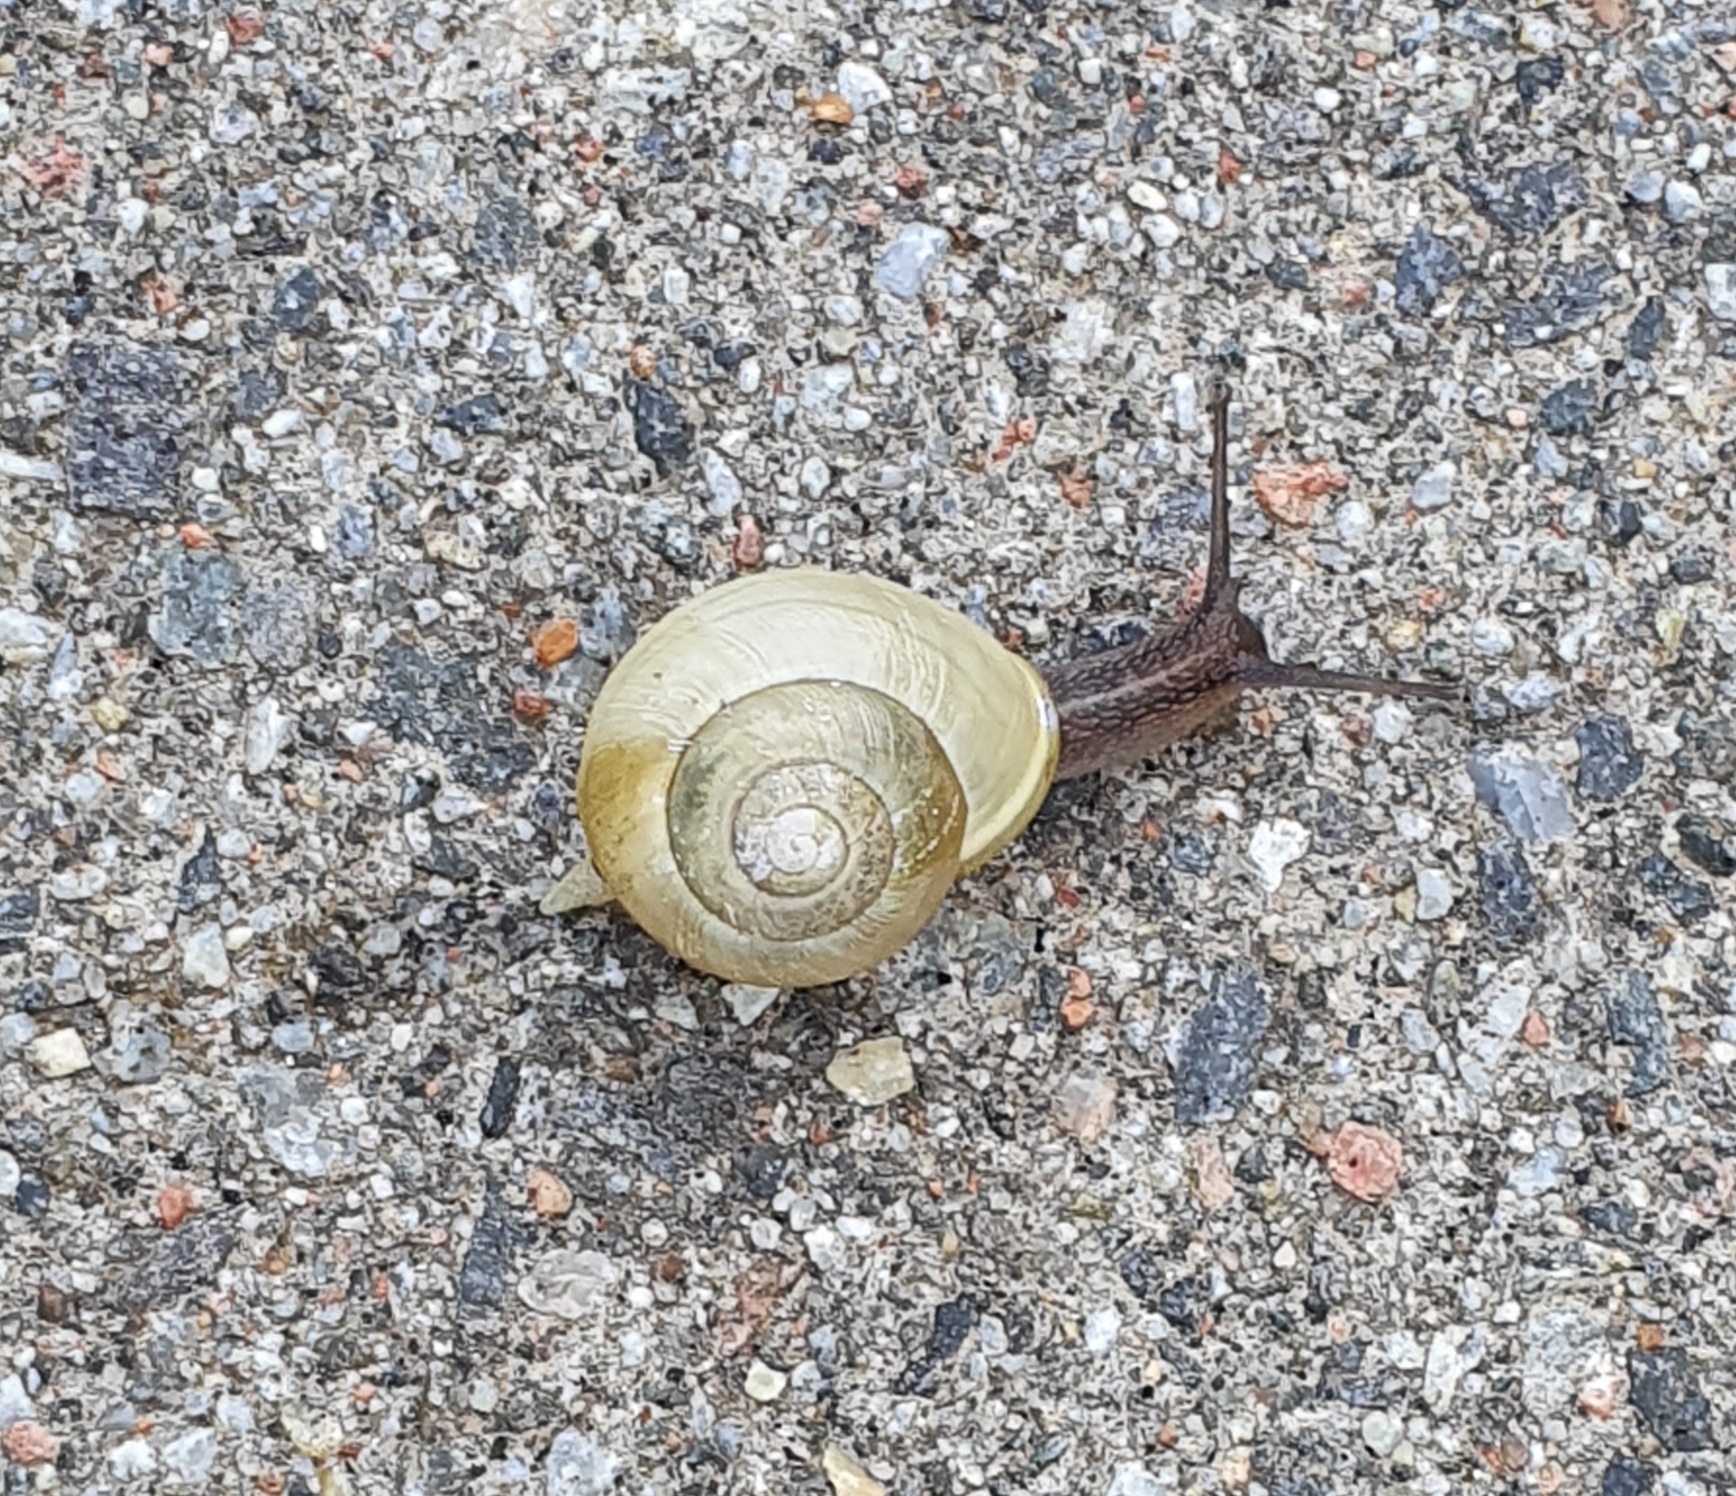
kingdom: Animalia
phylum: Mollusca
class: Gastropoda
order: Stylommatophora
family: Helicidae
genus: Cepaea
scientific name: Cepaea hortensis
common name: White-lip gardensnail
